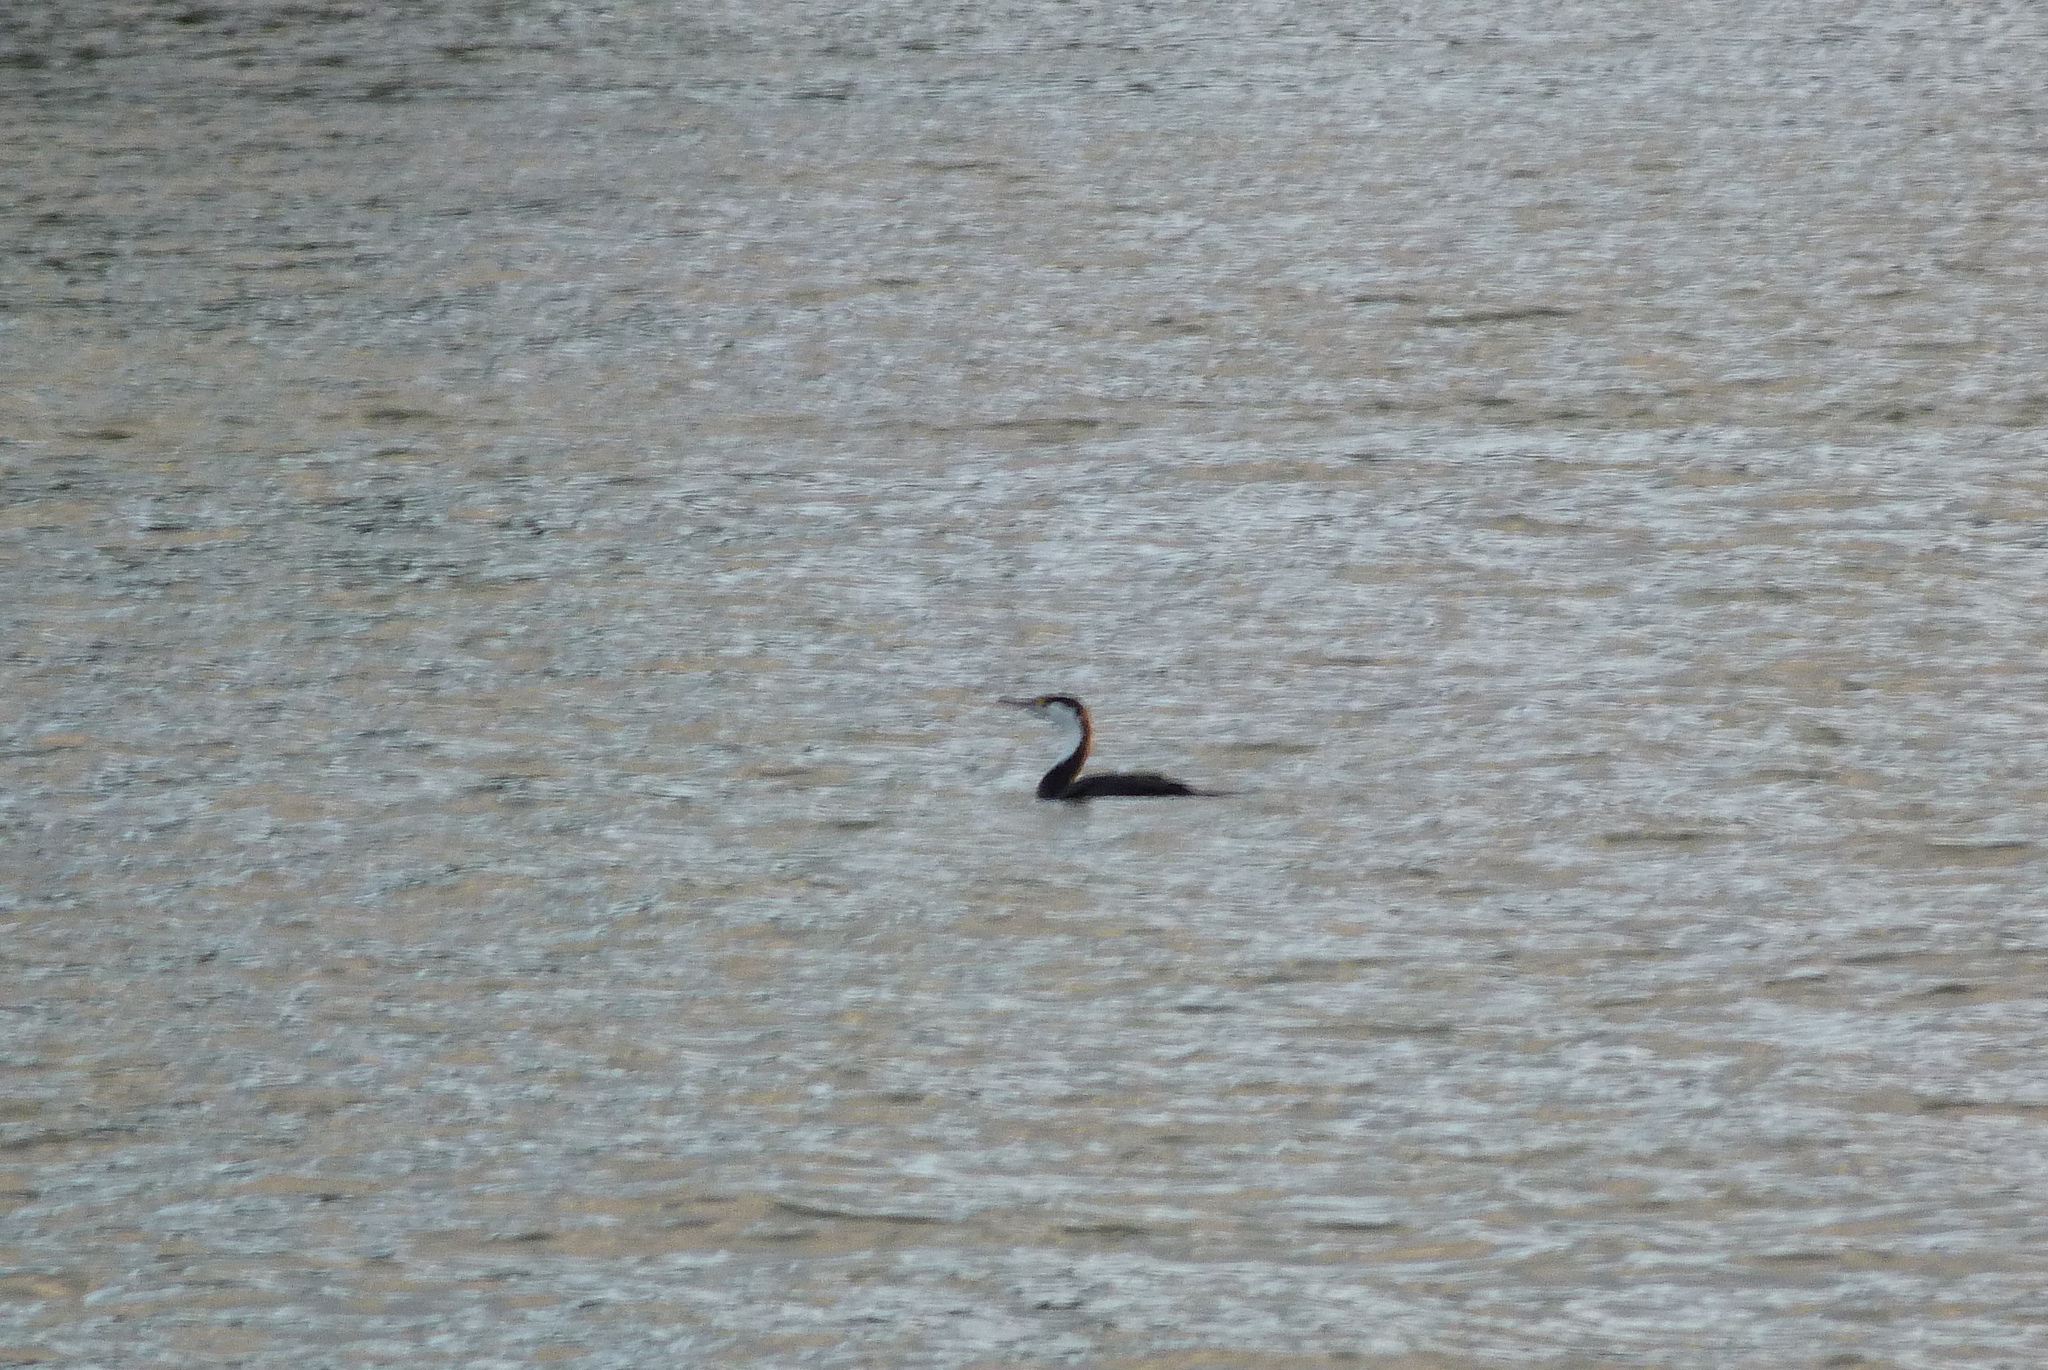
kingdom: Animalia
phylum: Chordata
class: Aves
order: Suliformes
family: Phalacrocoracidae
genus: Phalacrocorax
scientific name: Phalacrocorax varius
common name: Pied cormorant
